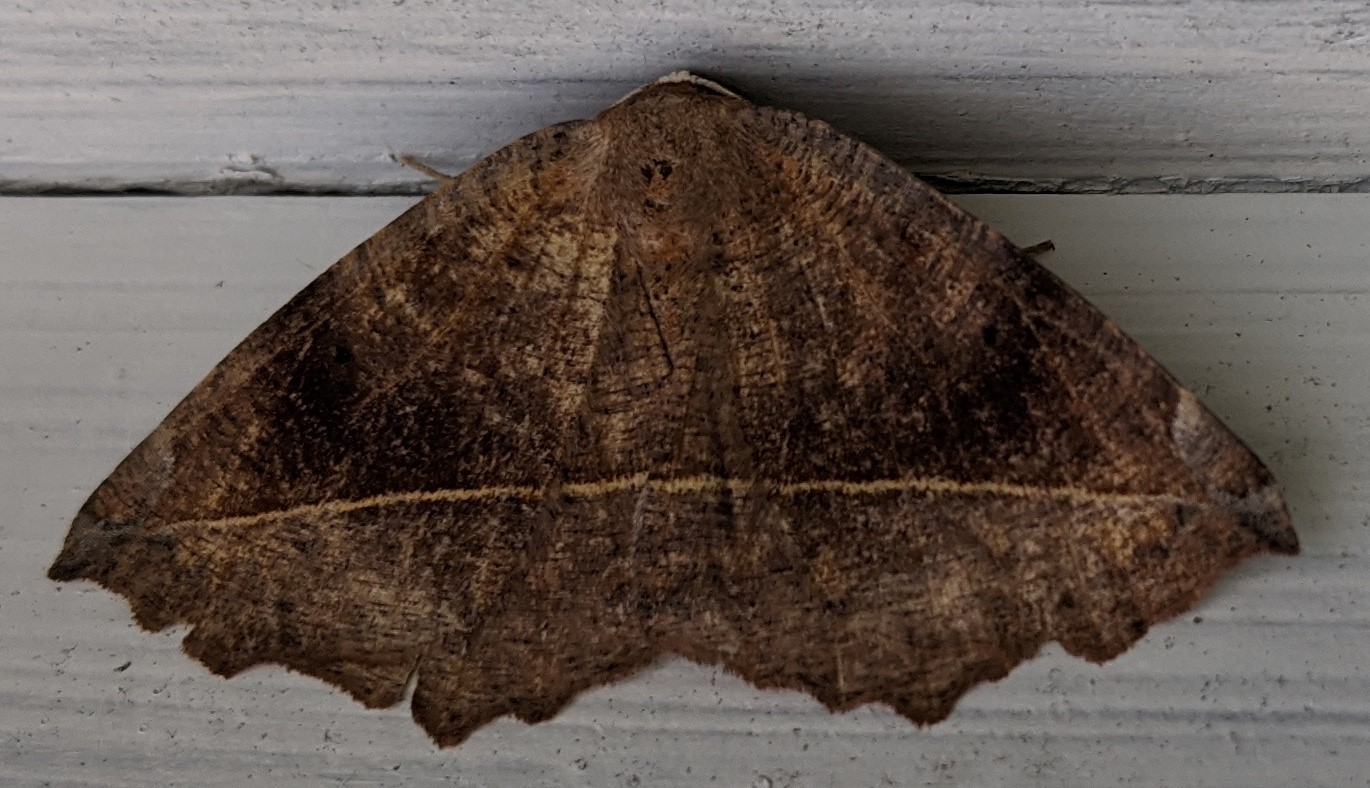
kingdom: Animalia
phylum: Arthropoda
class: Insecta
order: Lepidoptera
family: Geometridae
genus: Eutrapela
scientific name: Eutrapela clemataria
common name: Curved-toothed geometer
